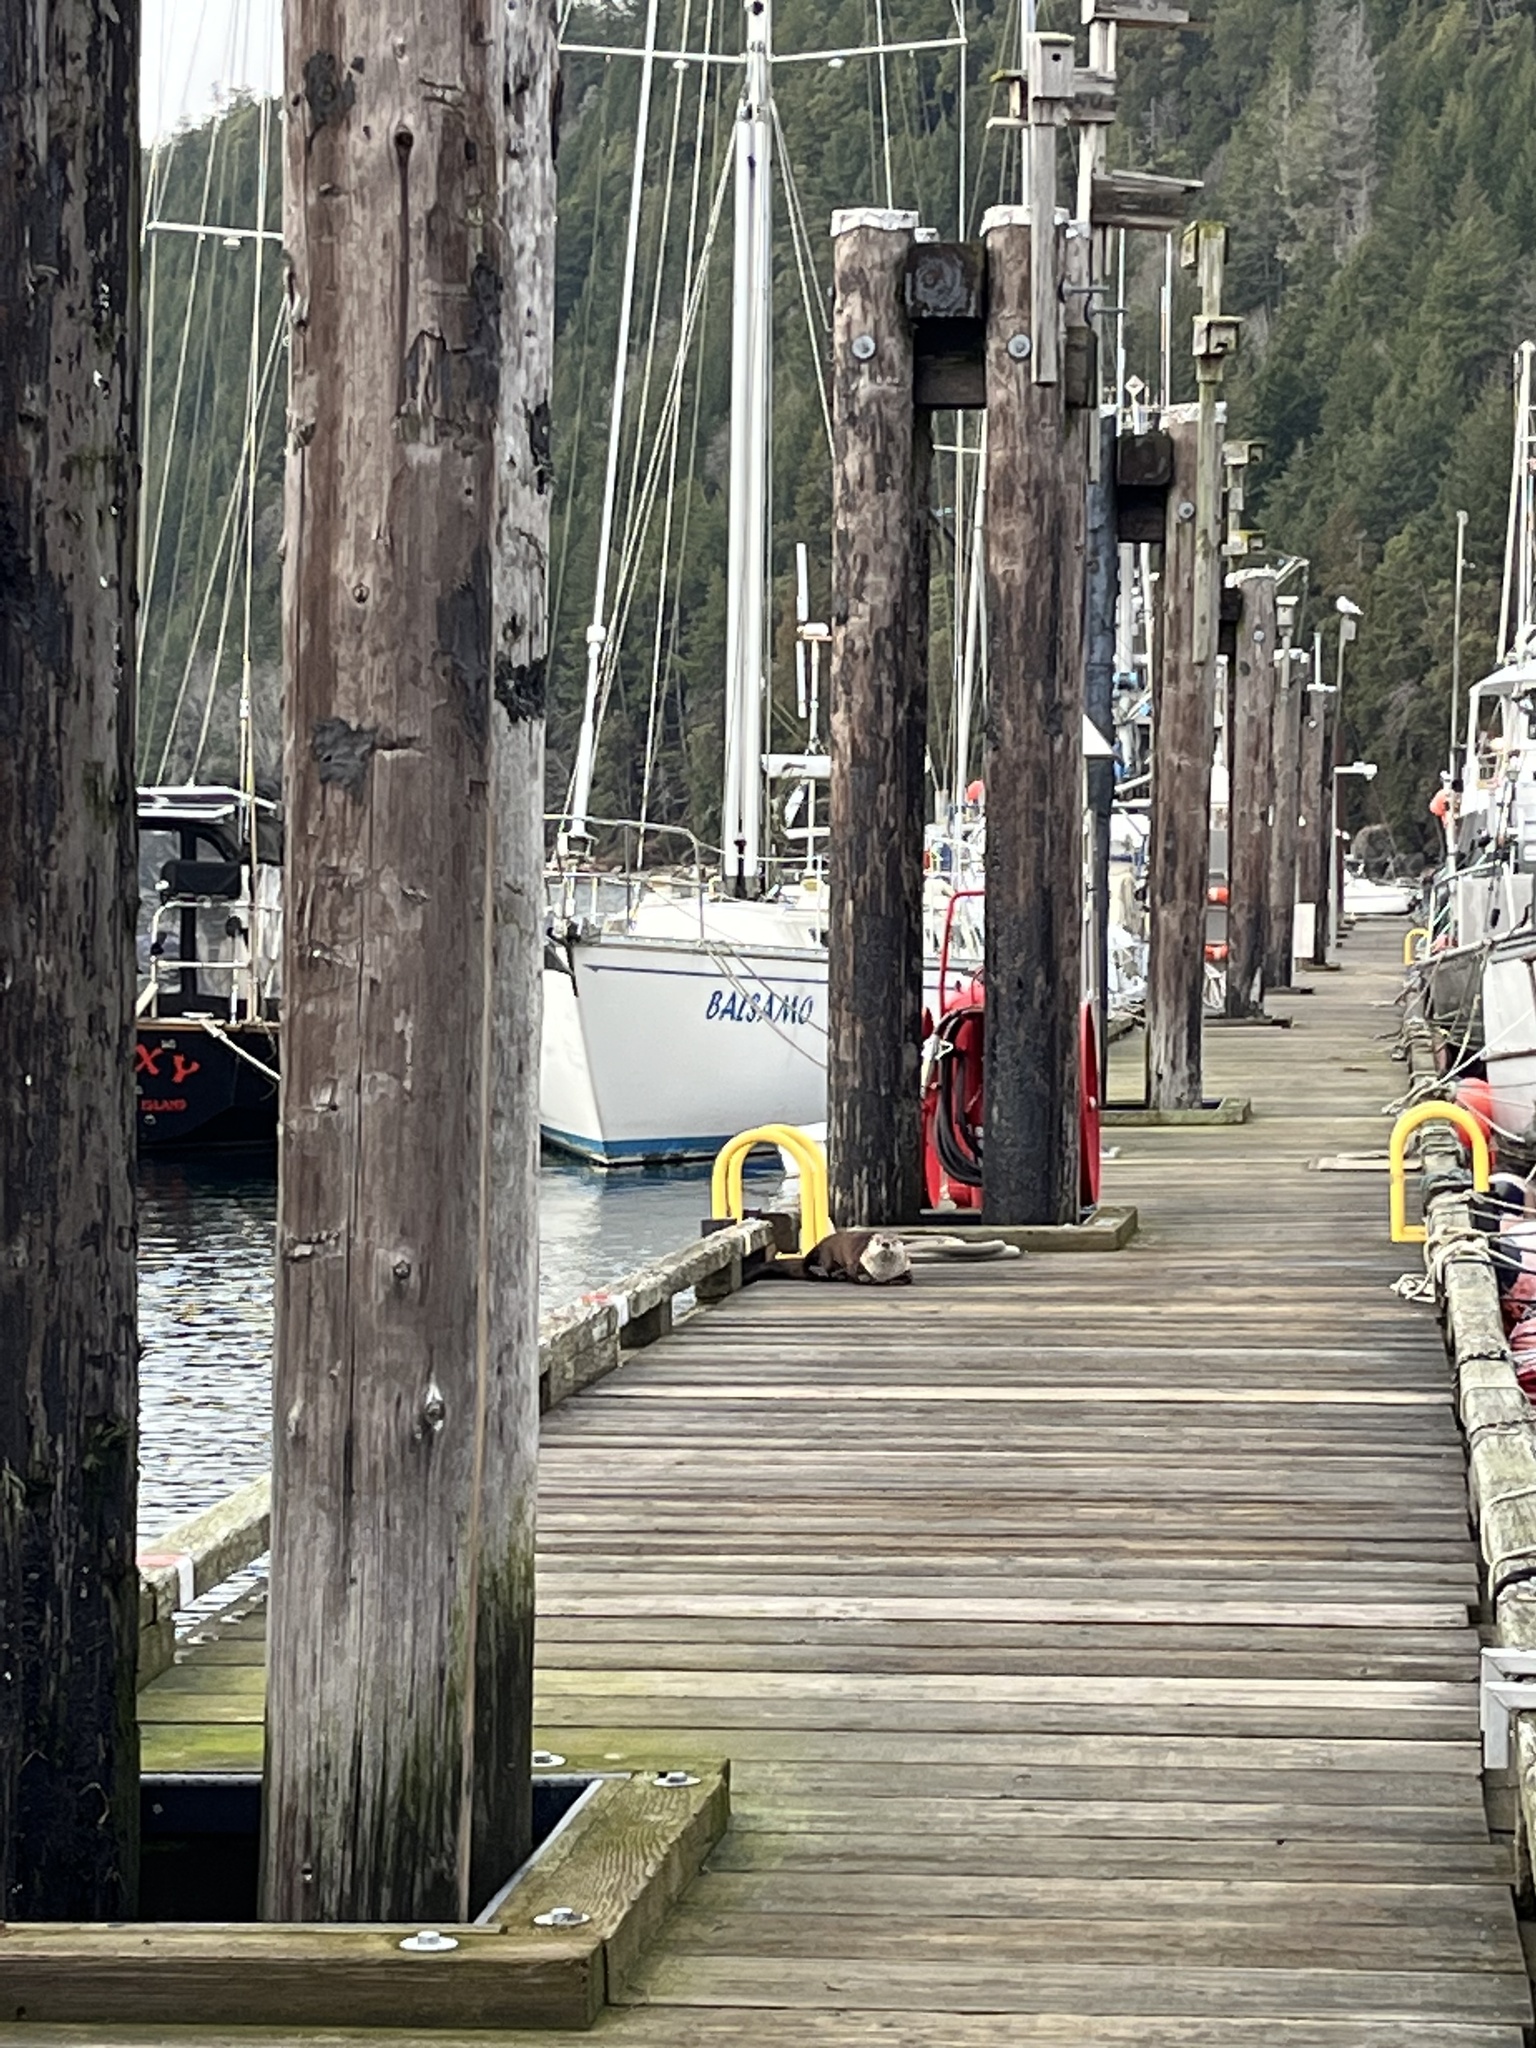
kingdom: Animalia
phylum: Chordata
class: Mammalia
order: Carnivora
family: Mustelidae
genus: Lontra
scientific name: Lontra canadensis
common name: North american river otter
